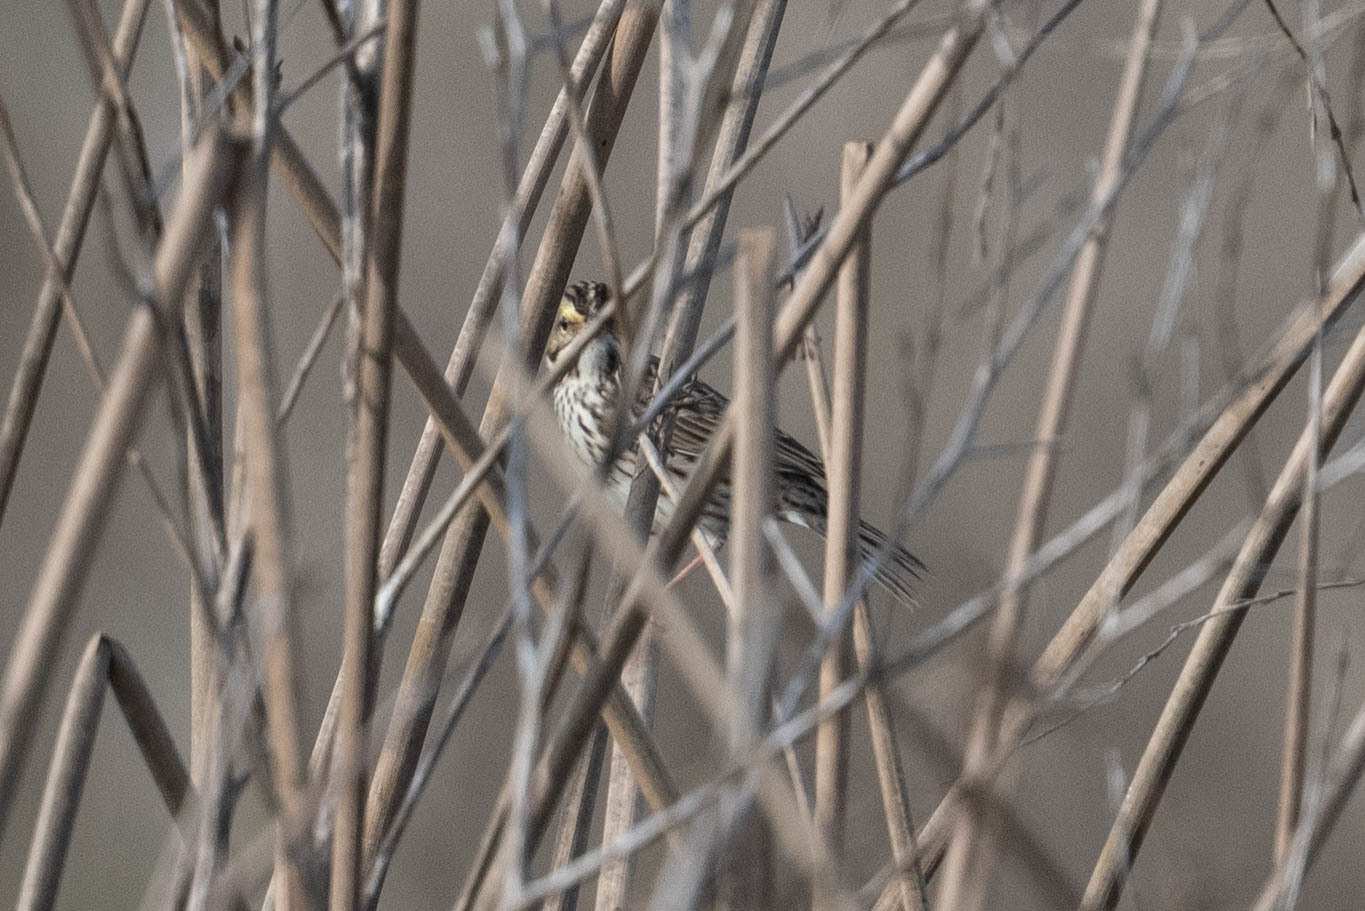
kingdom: Animalia
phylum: Chordata
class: Aves
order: Passeriformes
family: Passerellidae
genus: Passerculus
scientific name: Passerculus sandwichensis
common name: Savannah sparrow
